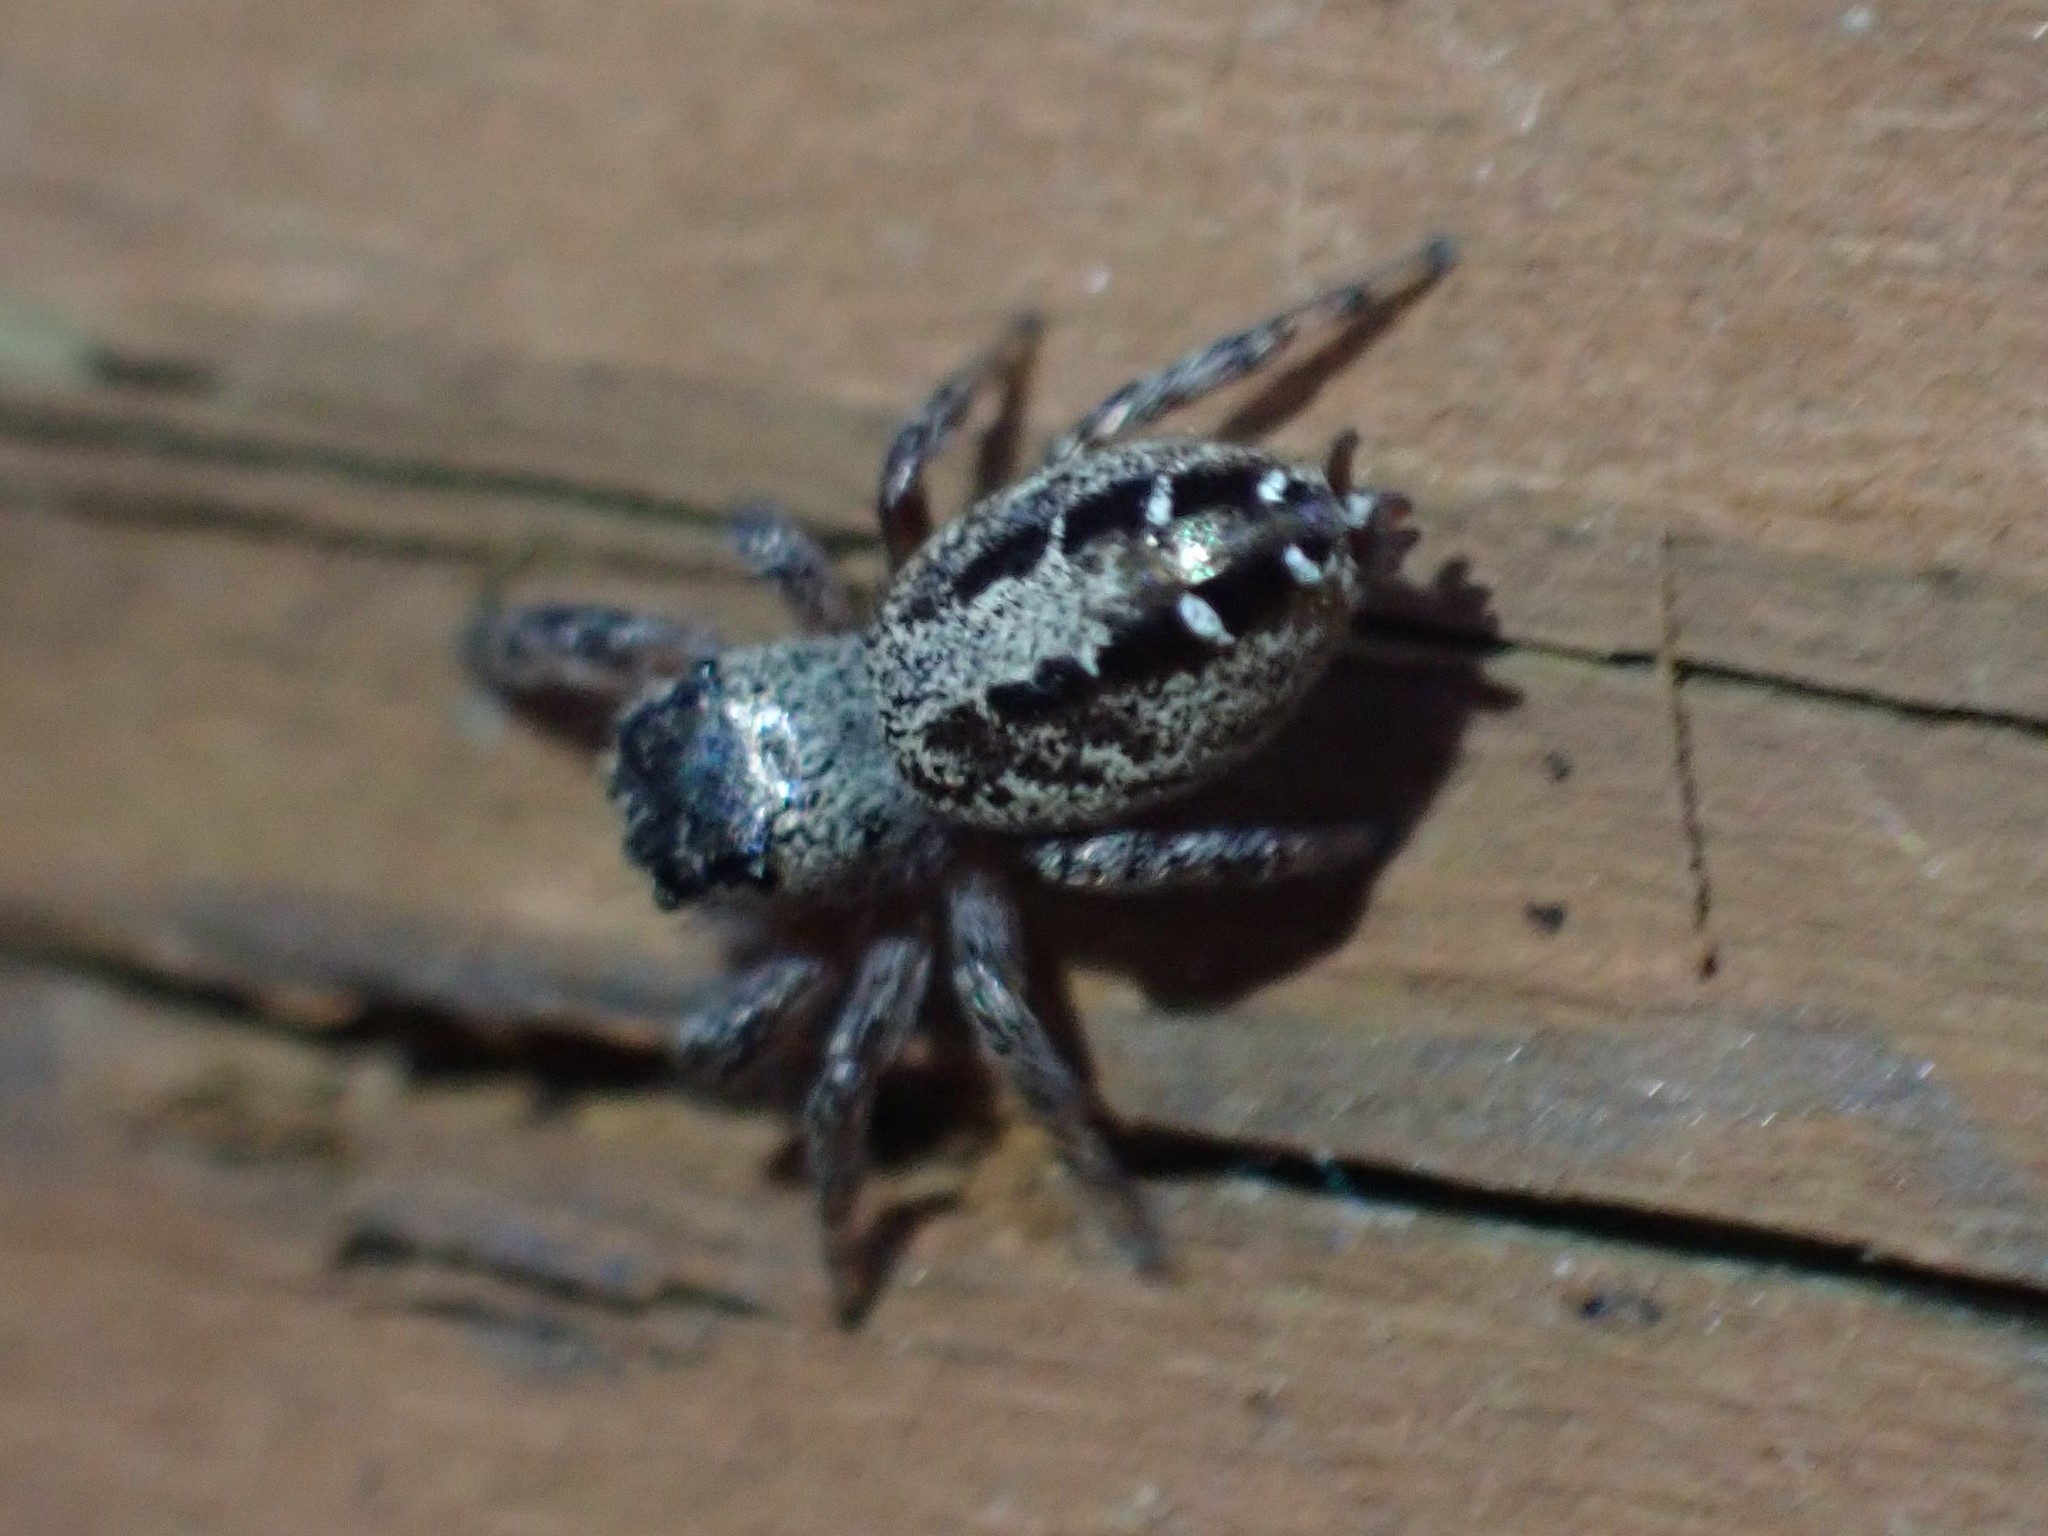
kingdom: Animalia
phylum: Arthropoda
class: Arachnida
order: Araneae
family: Salticidae
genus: Pelegrina
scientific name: Pelegrina aeneola
